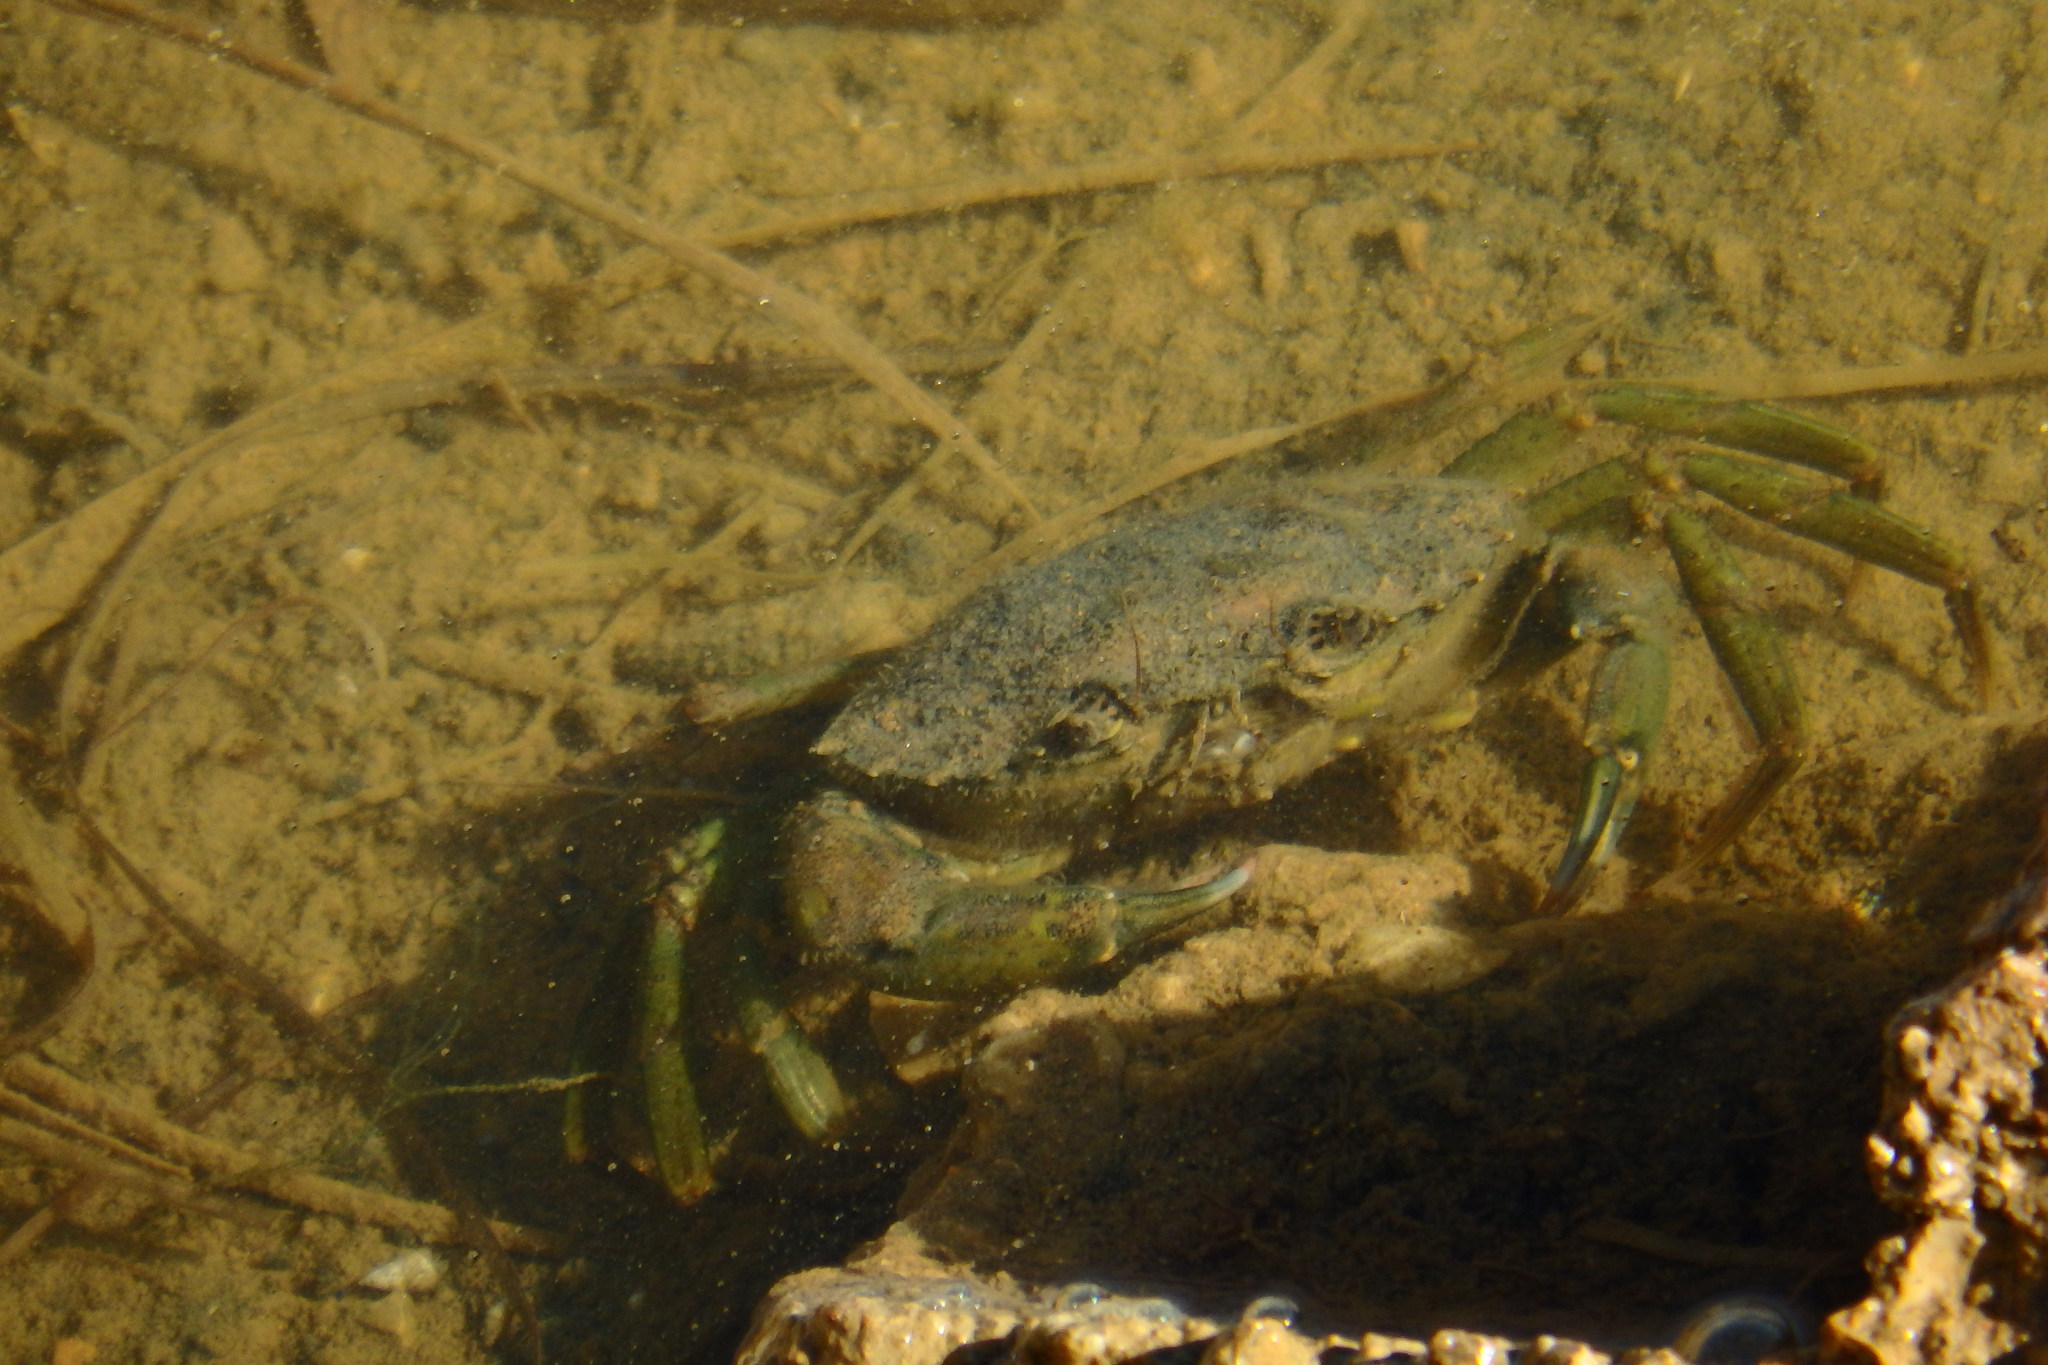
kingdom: Animalia
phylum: Arthropoda
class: Malacostraca
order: Decapoda
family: Carcinidae
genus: Carcinus
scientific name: Carcinus maenas
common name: European green crab
